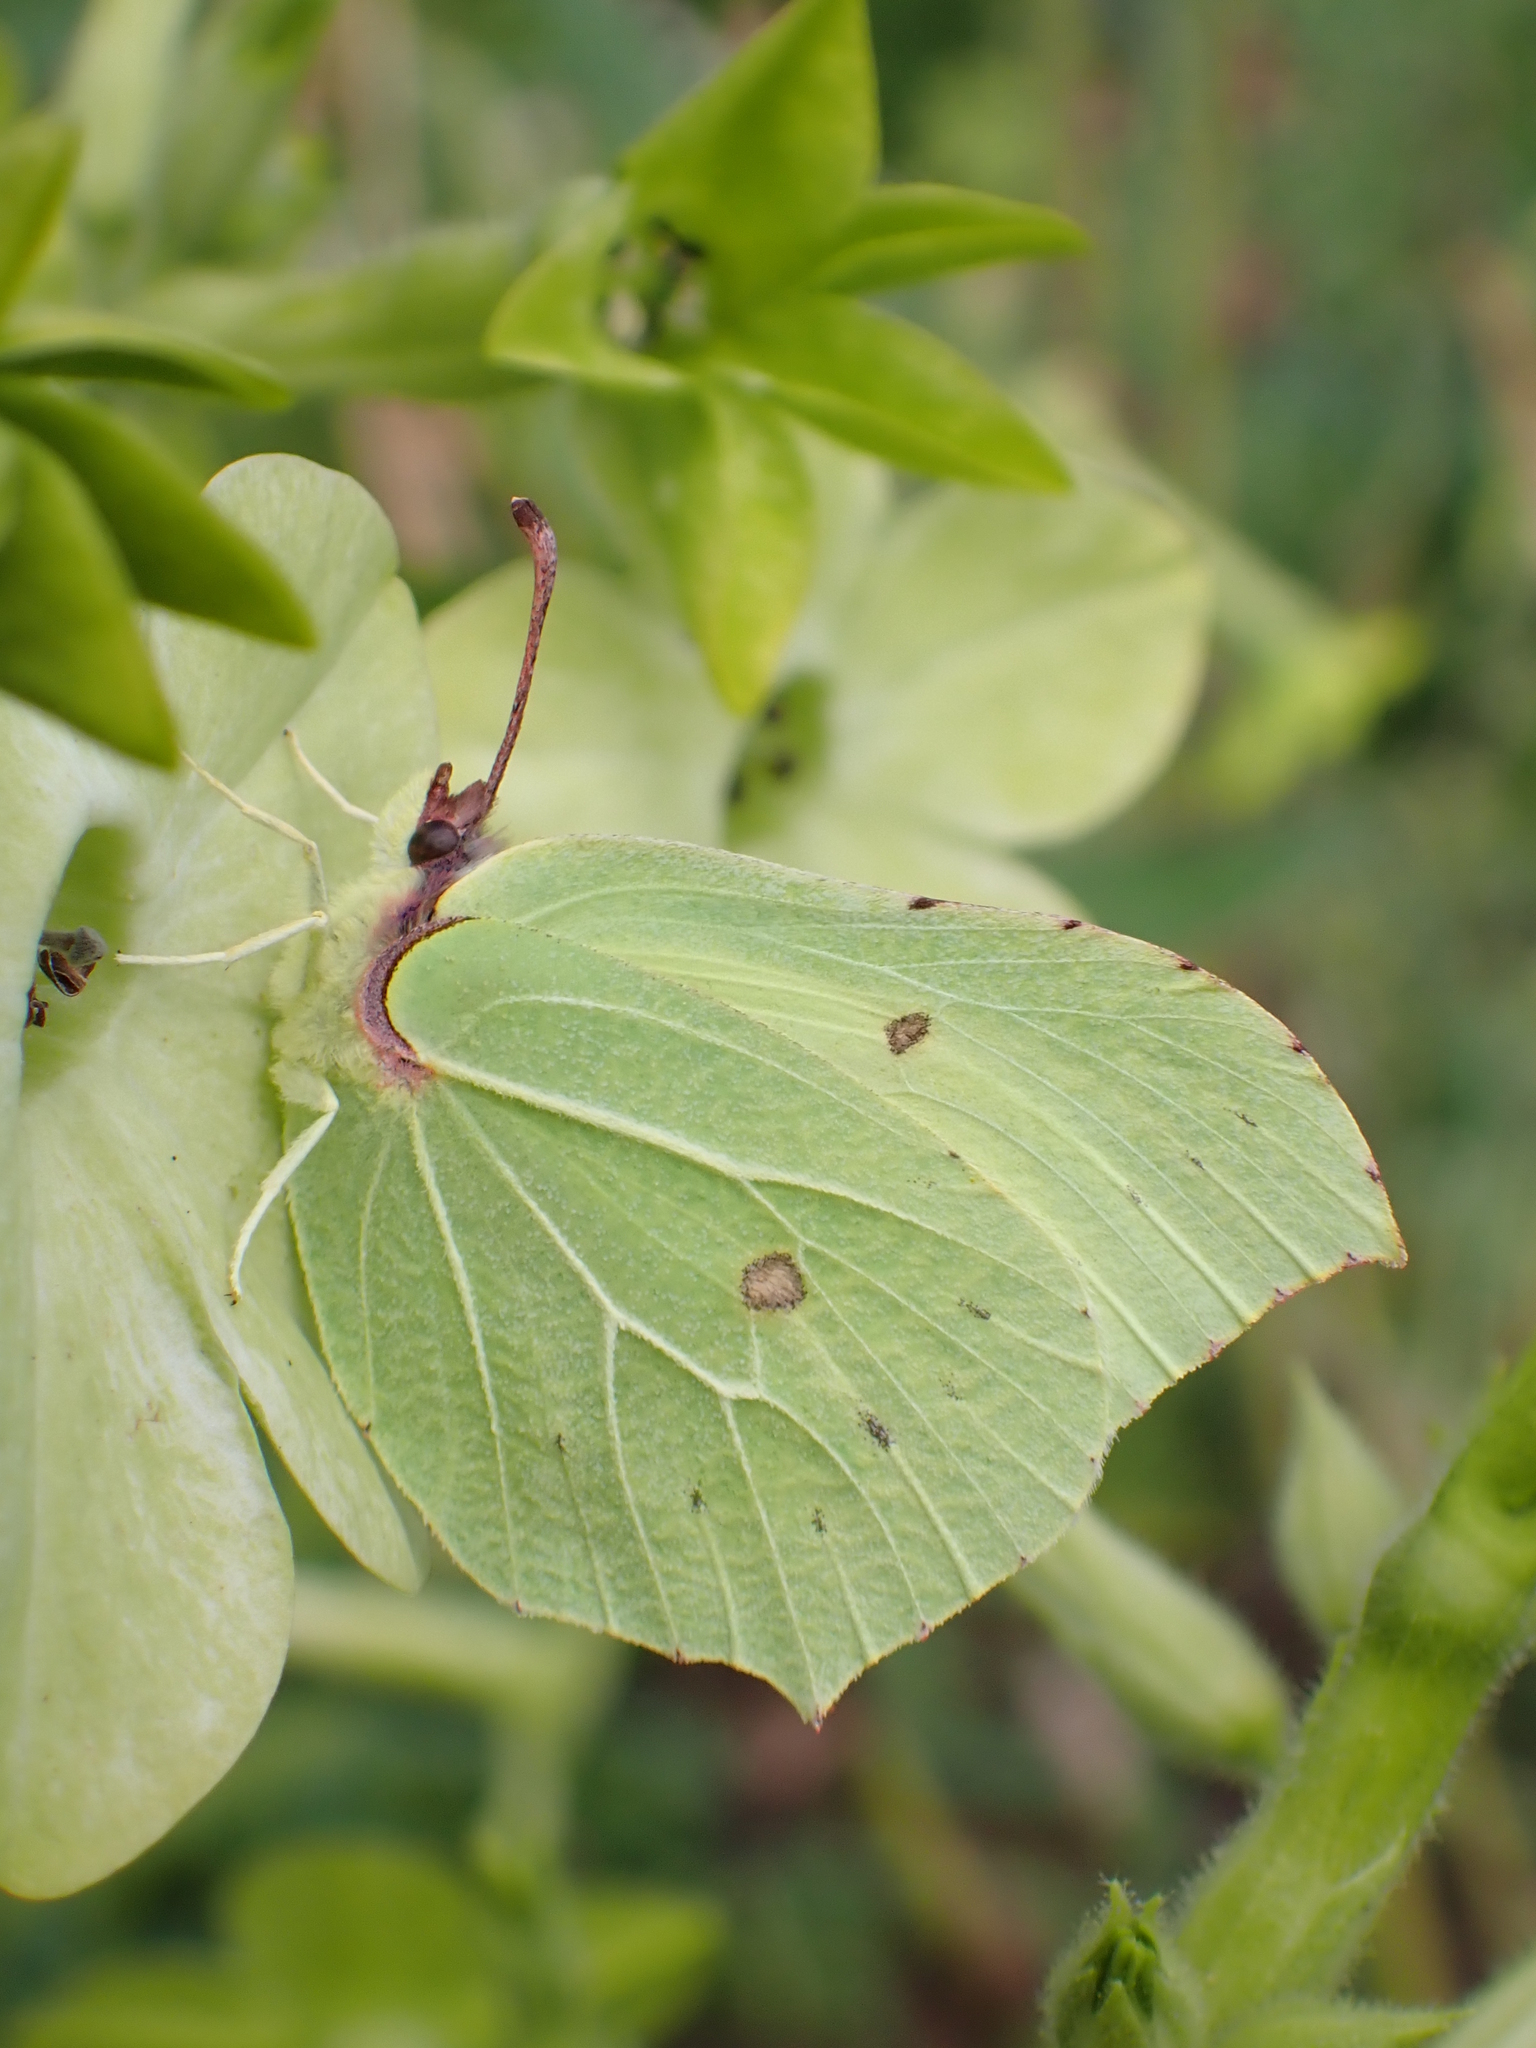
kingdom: Animalia
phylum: Arthropoda
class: Insecta
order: Lepidoptera
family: Pieridae
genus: Gonepteryx
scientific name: Gonepteryx rhamni
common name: Brimstone
